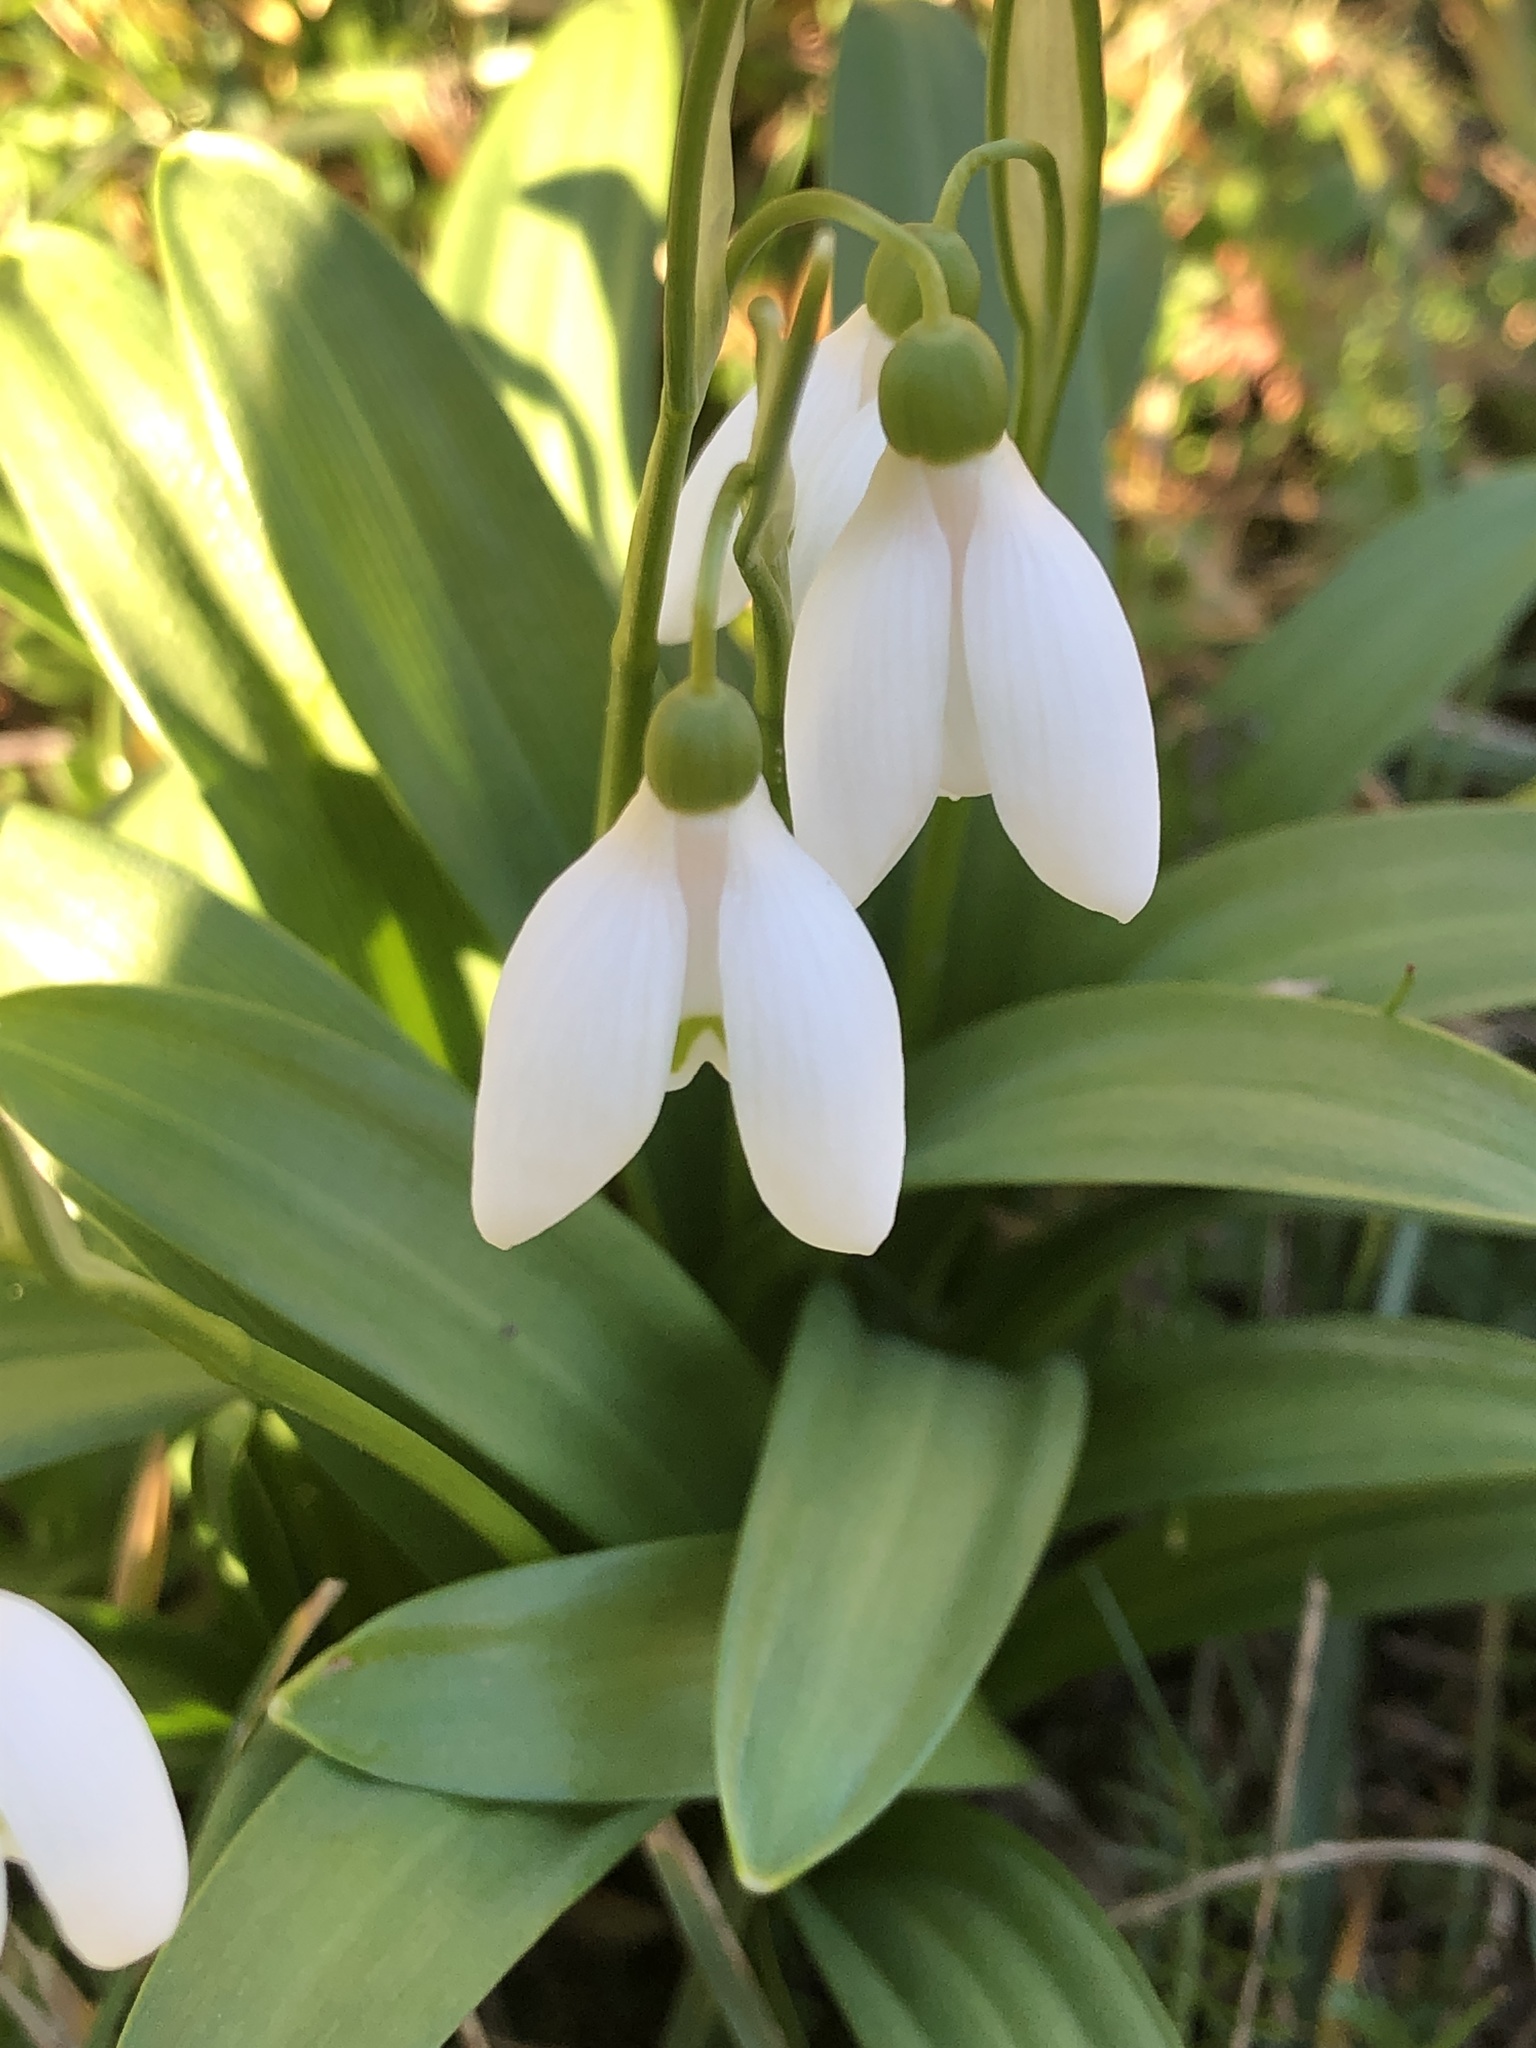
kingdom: Plantae
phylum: Tracheophyta
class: Liliopsida
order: Asparagales
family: Amaryllidaceae
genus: Galanthus
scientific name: Galanthus woronowii
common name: Green snowdrop
